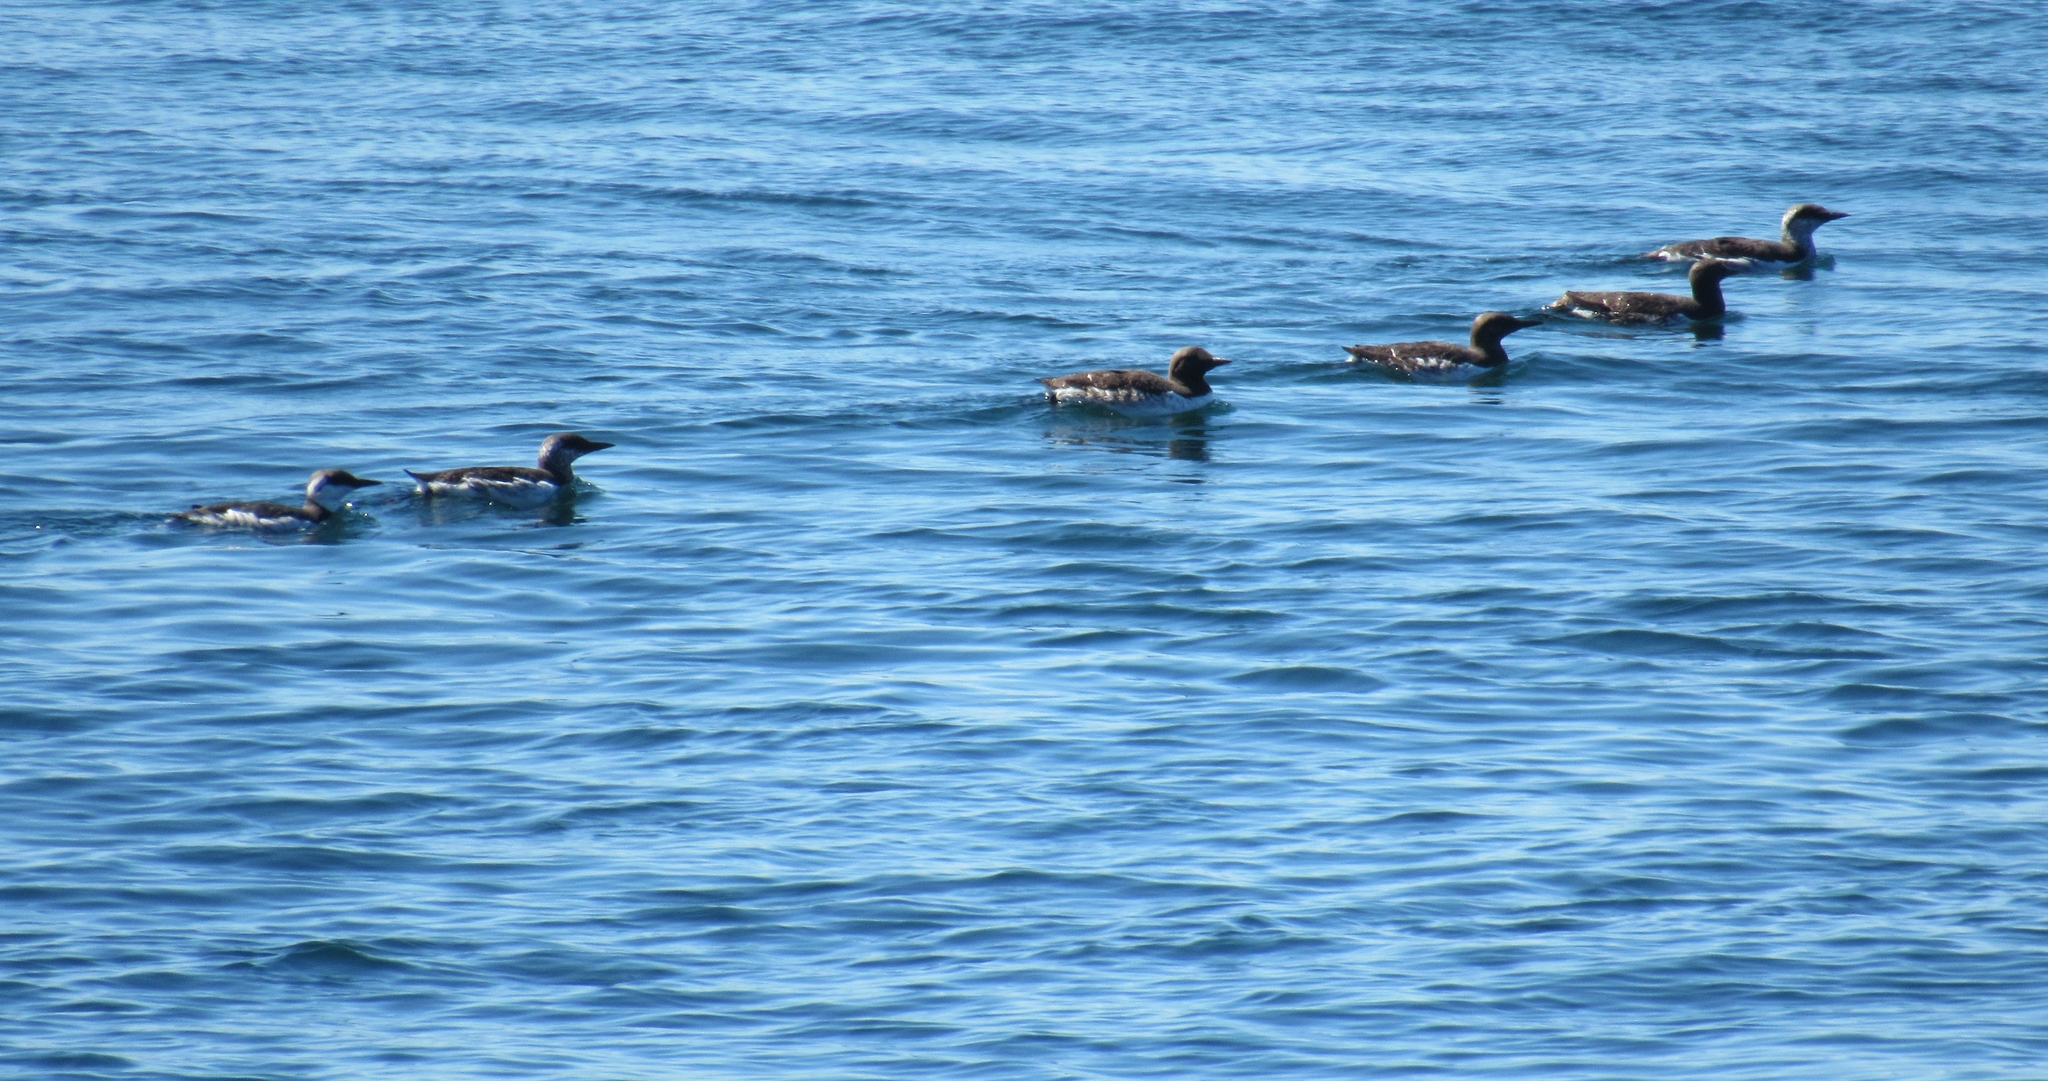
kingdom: Animalia
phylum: Chordata
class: Aves
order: Charadriiformes
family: Alcidae
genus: Uria
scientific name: Uria aalge
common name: Common murre
